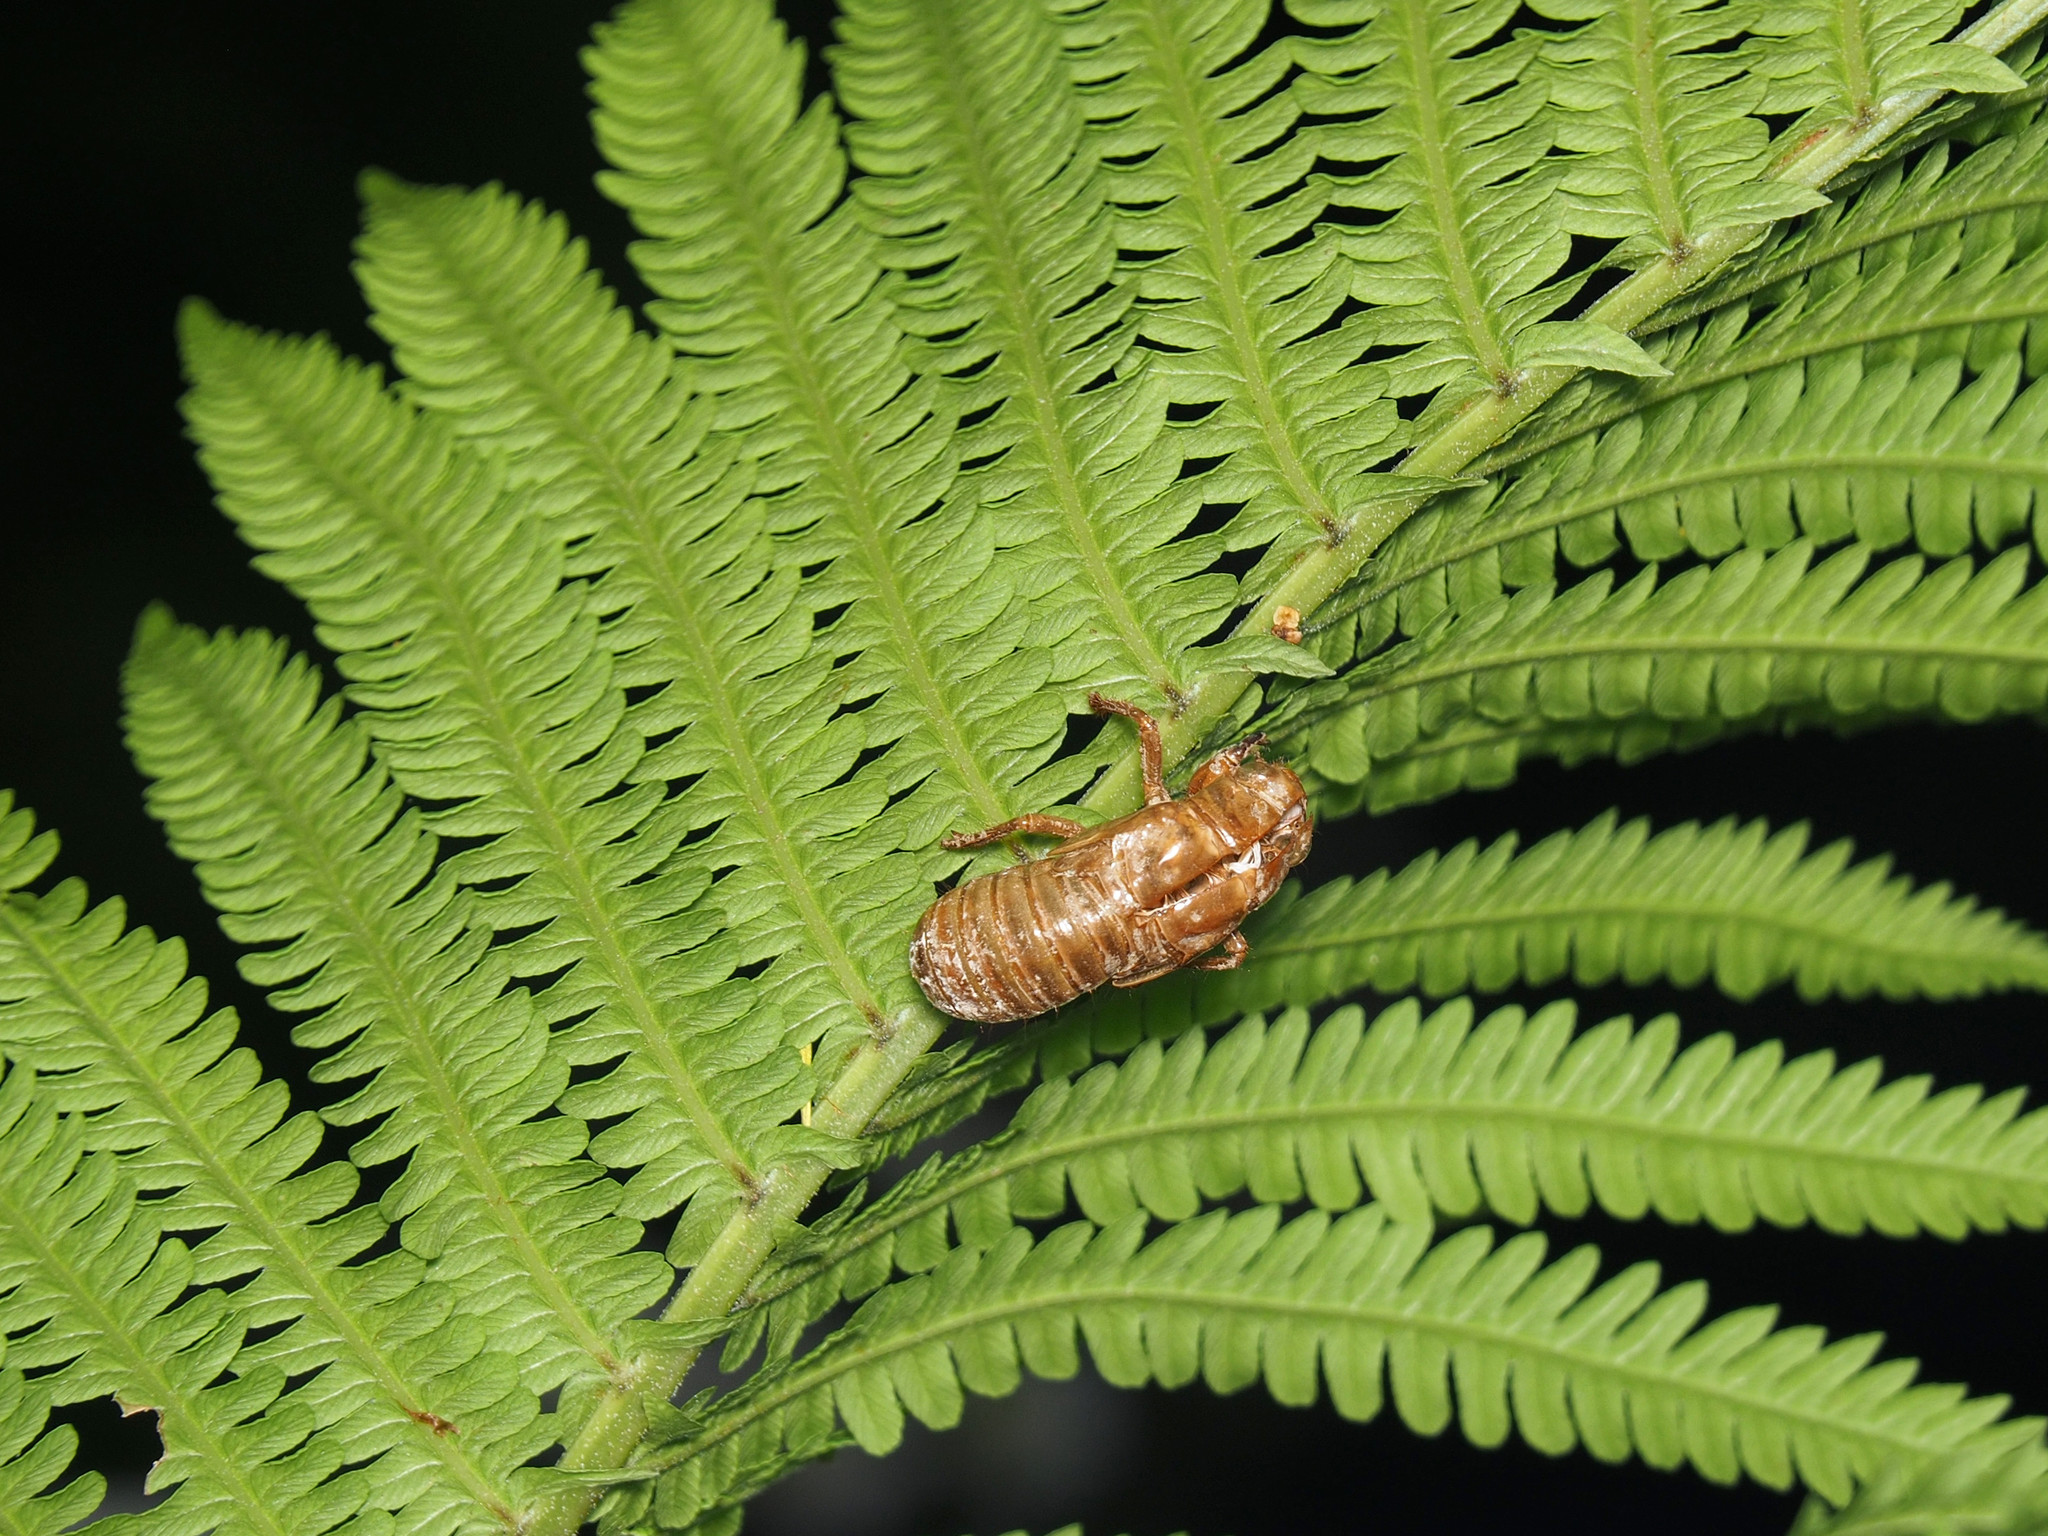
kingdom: Animalia
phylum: Arthropoda
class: Insecta
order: Hemiptera
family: Cicadidae
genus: Magicicada
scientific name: Magicicada
